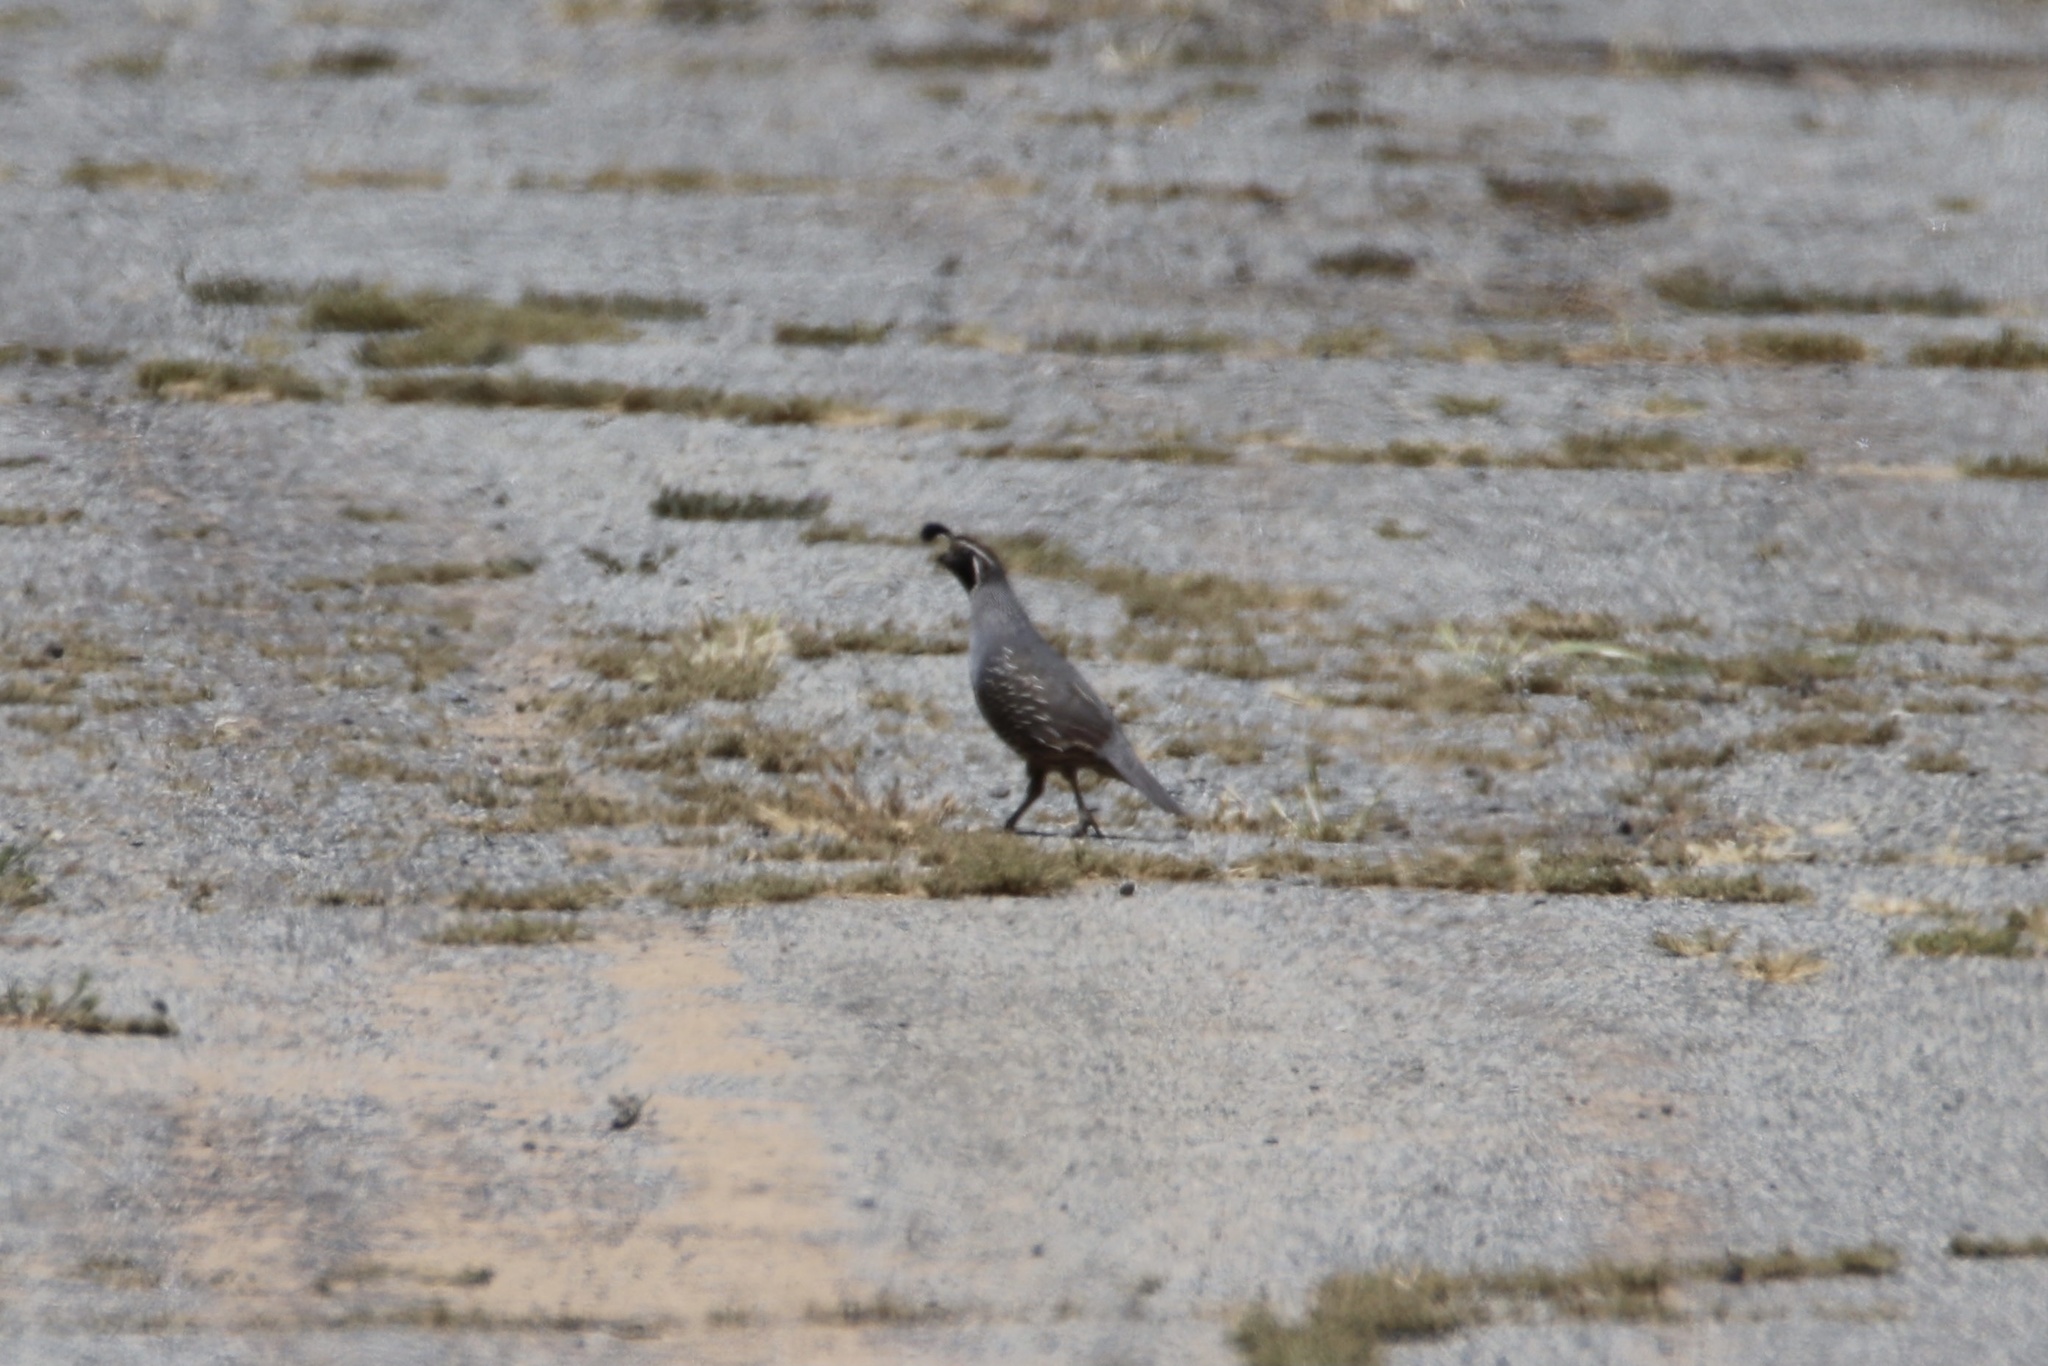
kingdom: Animalia
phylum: Chordata
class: Aves
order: Galliformes
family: Odontophoridae
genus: Callipepla
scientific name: Callipepla californica
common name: California quail
